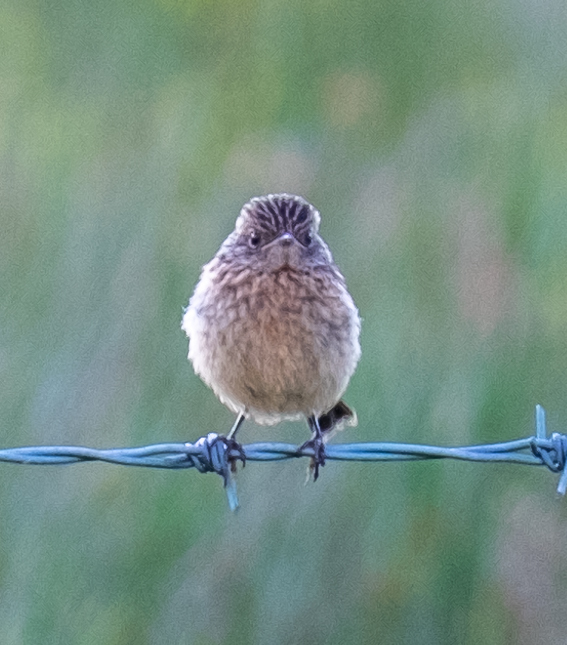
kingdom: Animalia
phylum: Chordata
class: Aves
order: Passeriformes
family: Muscicapidae
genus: Saxicola
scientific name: Saxicola rubicola
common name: European stonechat
